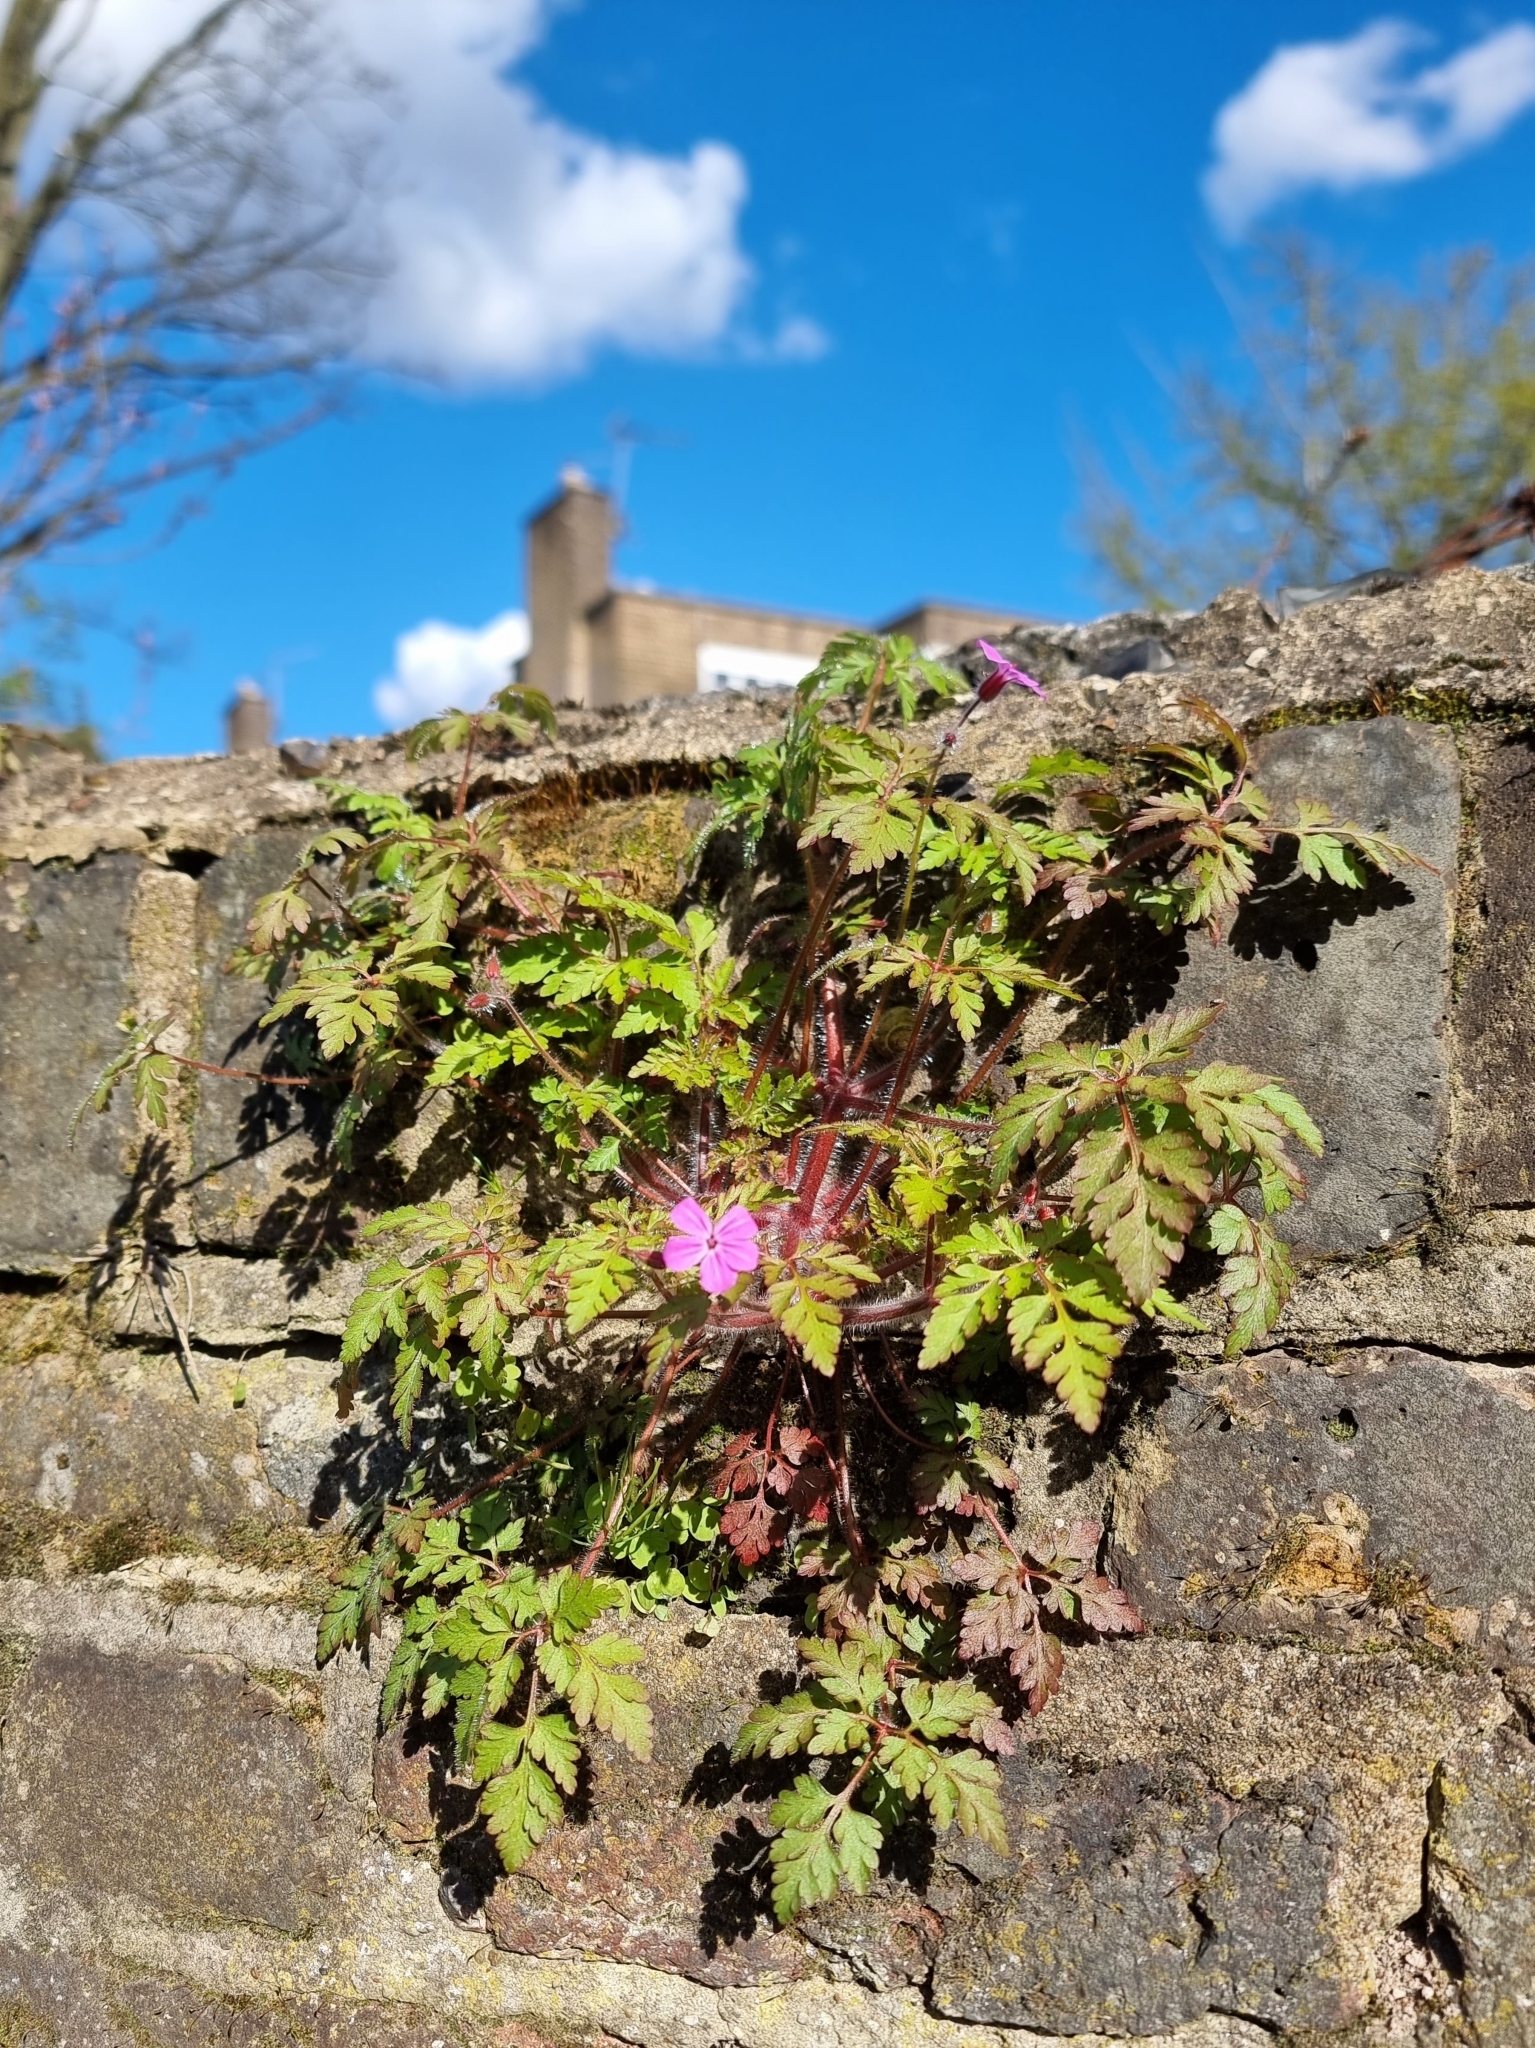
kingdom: Plantae
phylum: Tracheophyta
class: Magnoliopsida
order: Geraniales
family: Geraniaceae
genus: Geranium
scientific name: Geranium robertianum
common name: Herb-robert
